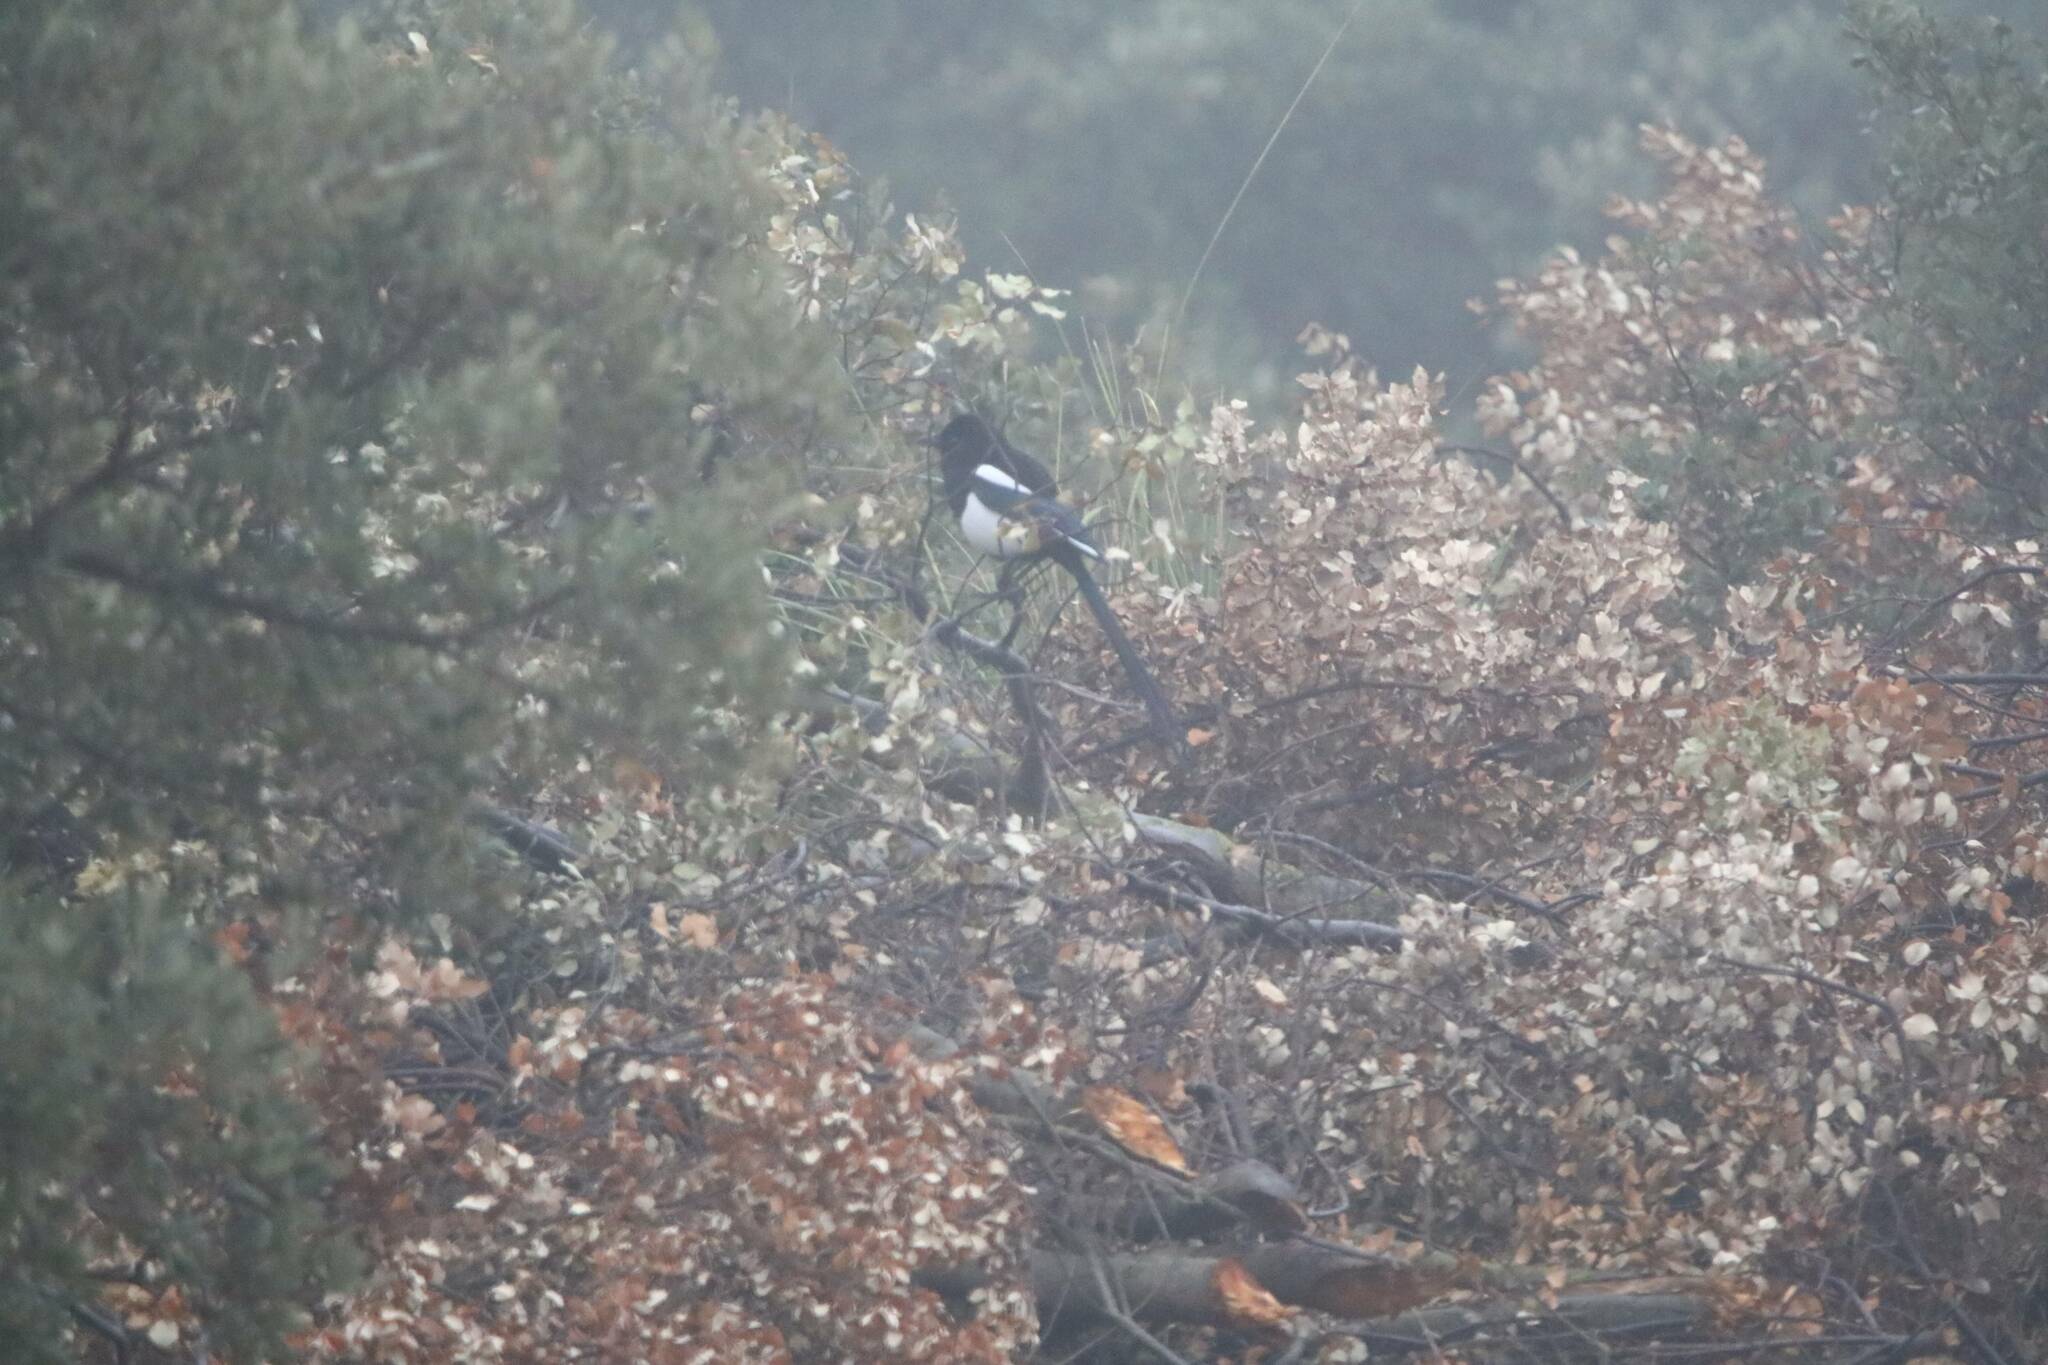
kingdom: Animalia
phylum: Chordata
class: Aves
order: Passeriformes
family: Corvidae
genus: Pica
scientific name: Pica mauritanica
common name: Maghreb magpie
